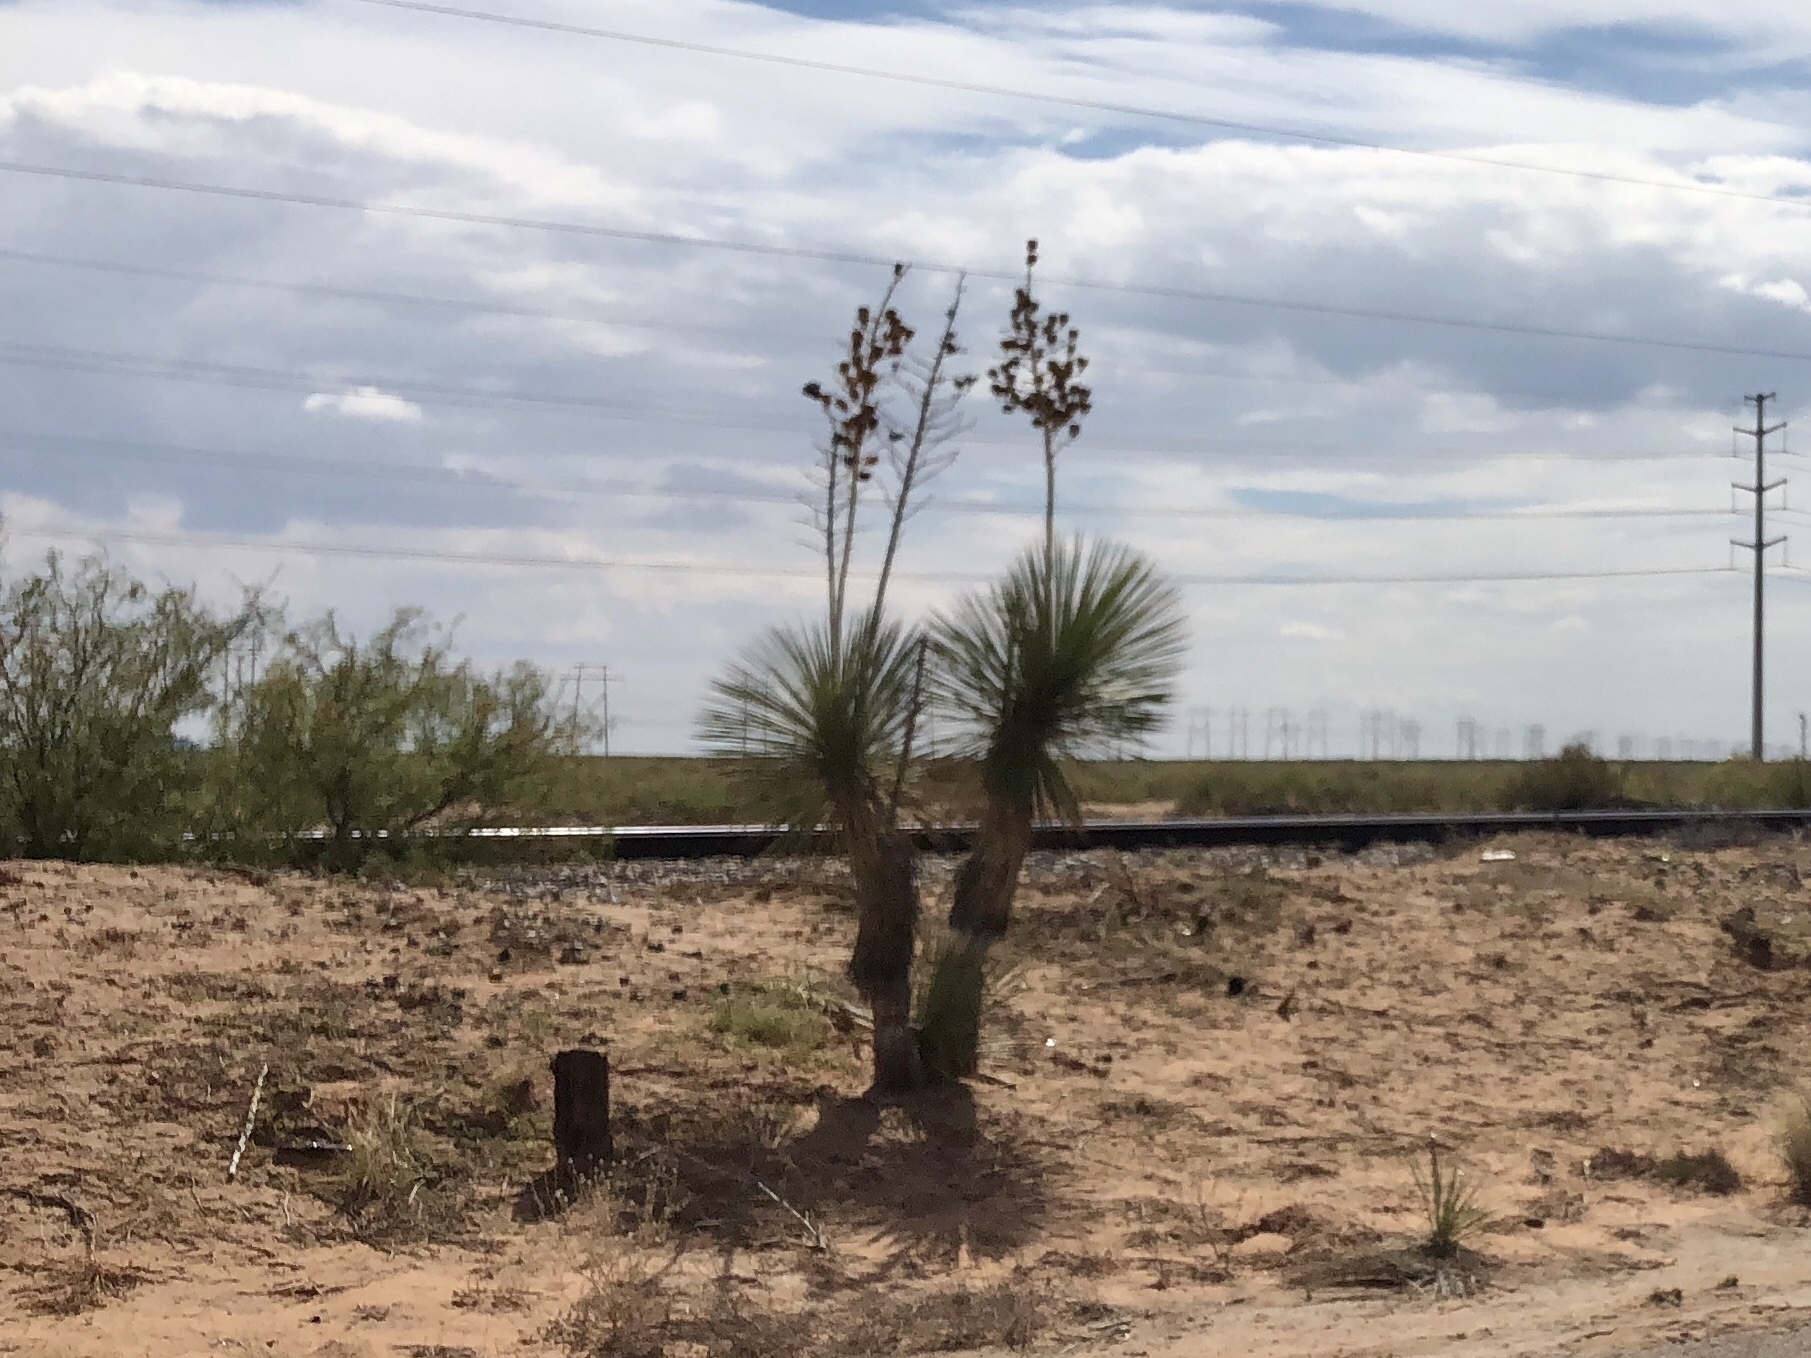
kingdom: Plantae
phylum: Tracheophyta
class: Liliopsida
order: Asparagales
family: Asparagaceae
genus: Yucca
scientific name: Yucca elata
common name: Palmella
